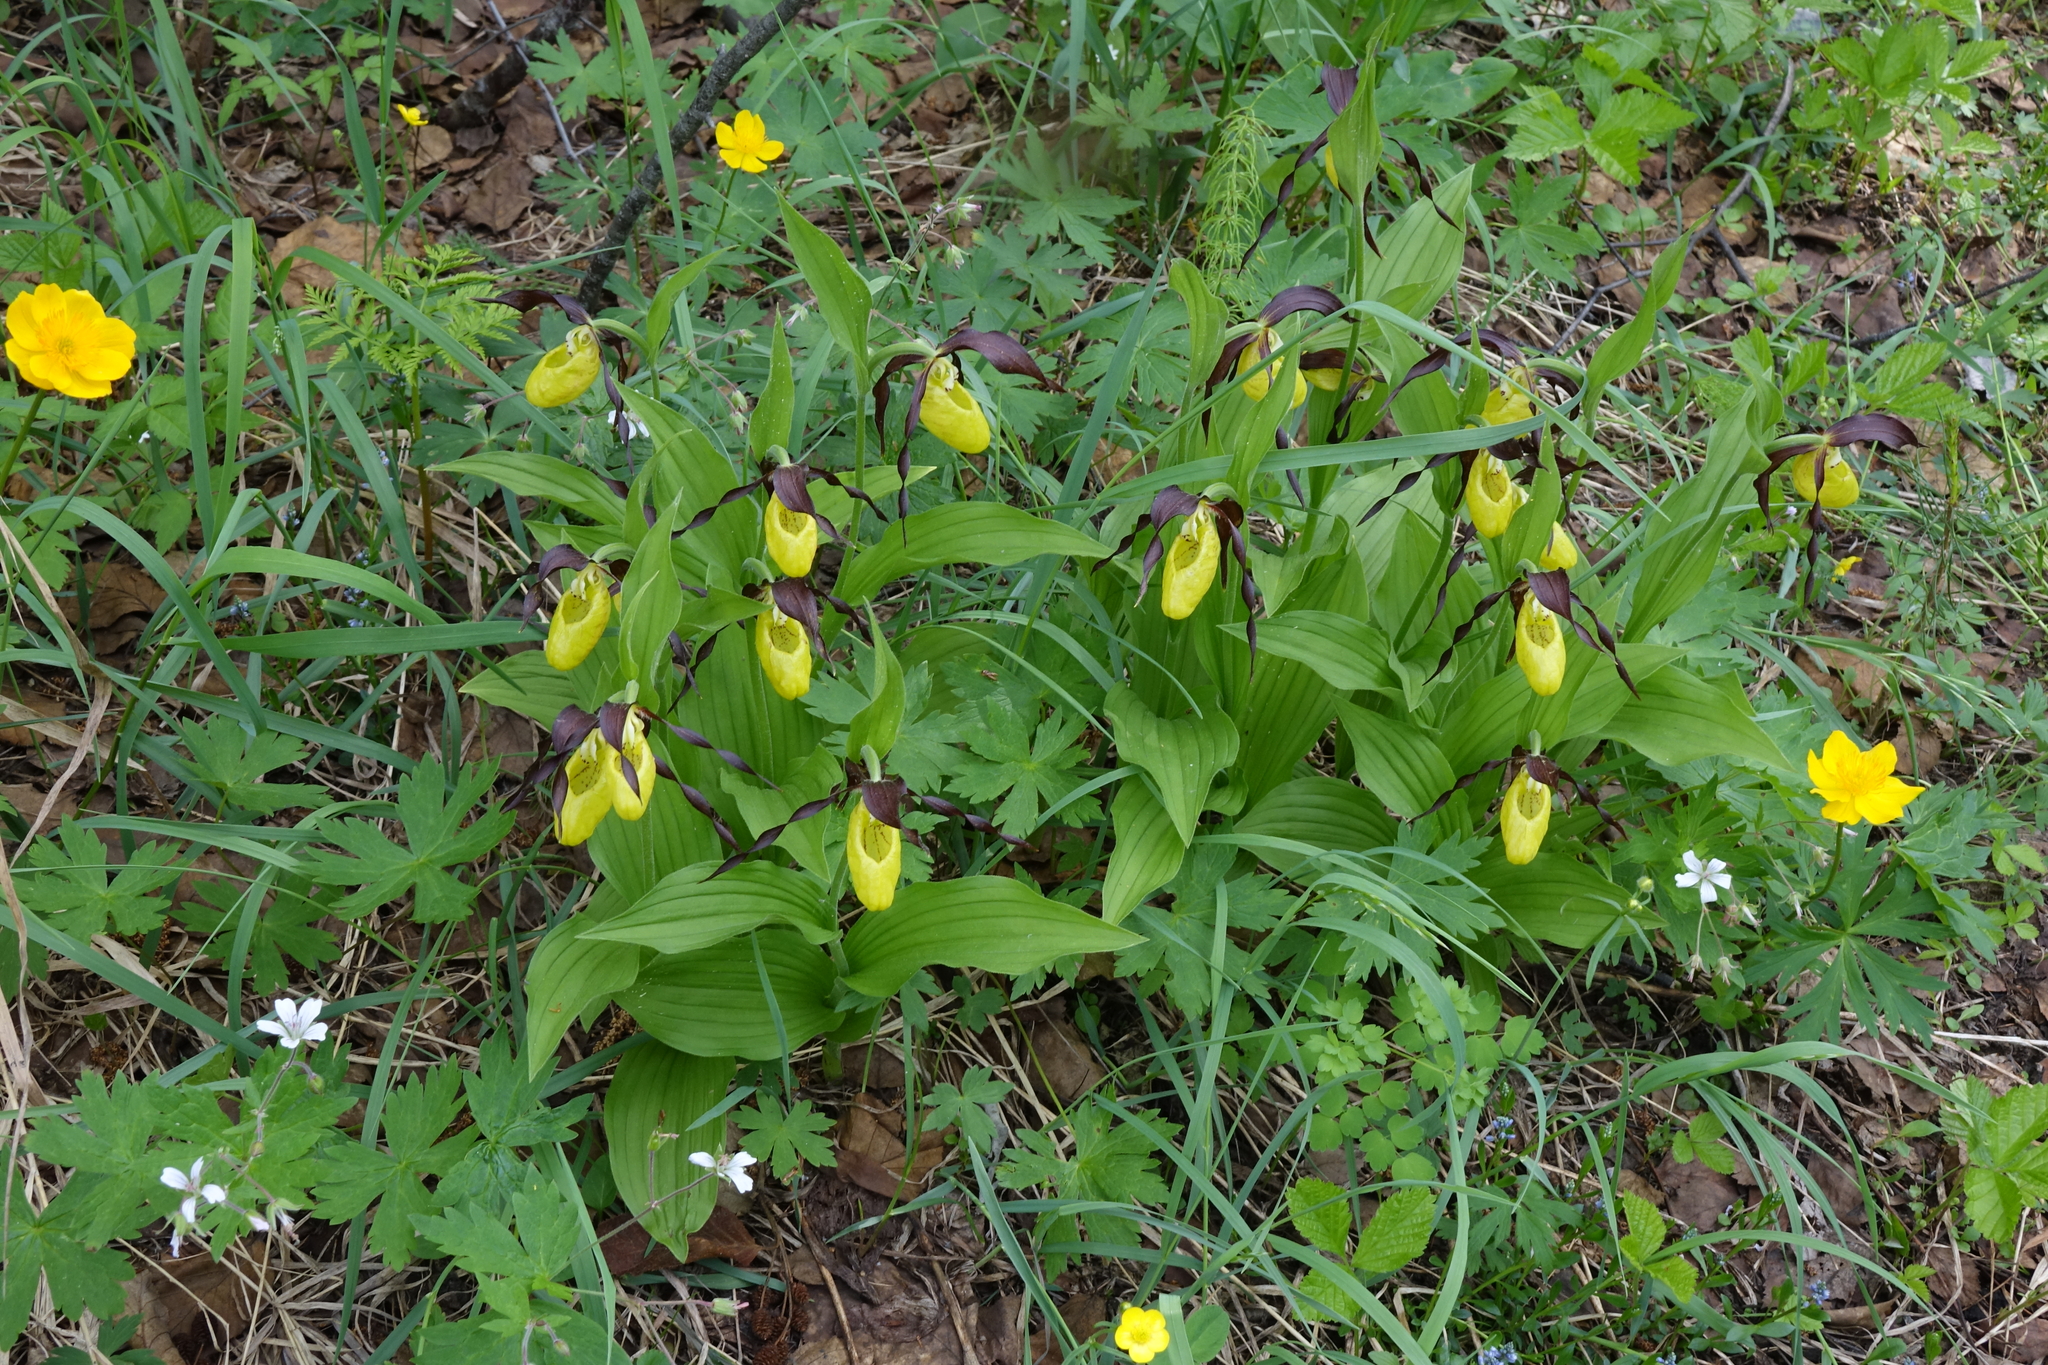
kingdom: Plantae
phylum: Tracheophyta
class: Liliopsida
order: Asparagales
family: Orchidaceae
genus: Cypripedium
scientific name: Cypripedium calceolus
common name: Lady's-slipper
